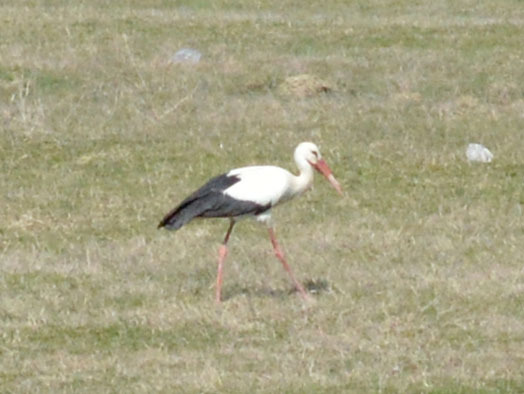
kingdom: Animalia
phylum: Chordata
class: Aves
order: Ciconiiformes
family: Ciconiidae
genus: Ciconia
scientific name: Ciconia ciconia
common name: White stork
